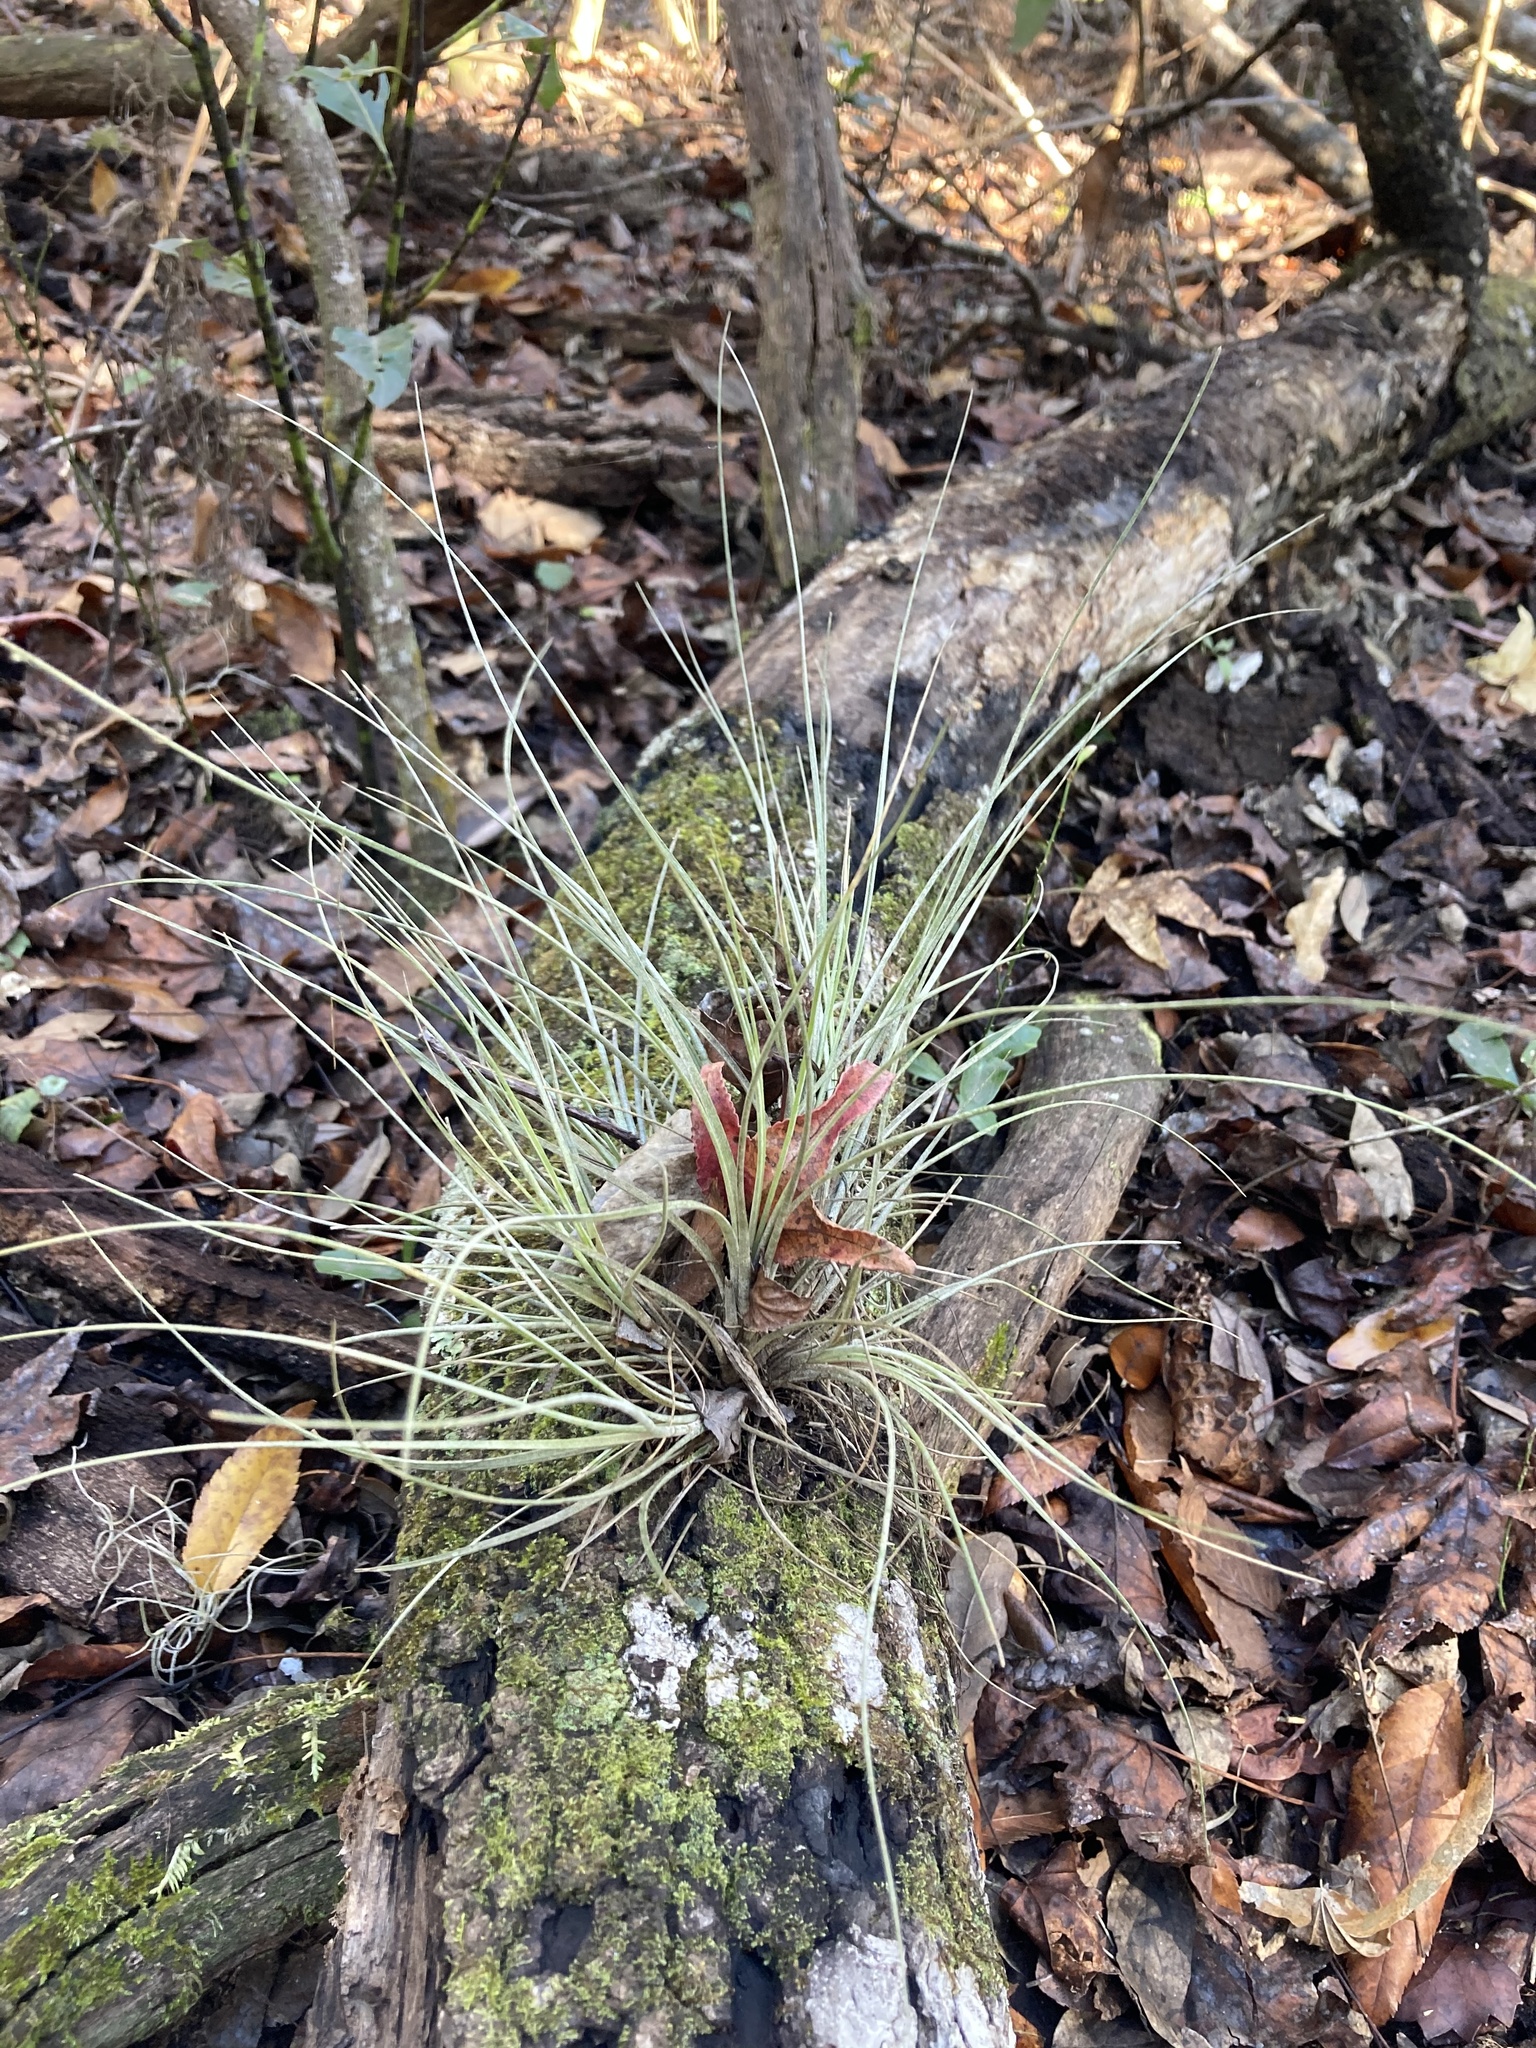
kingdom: Plantae
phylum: Tracheophyta
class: Liliopsida
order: Poales
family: Bromeliaceae
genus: Tillandsia
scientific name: Tillandsia bartramii
